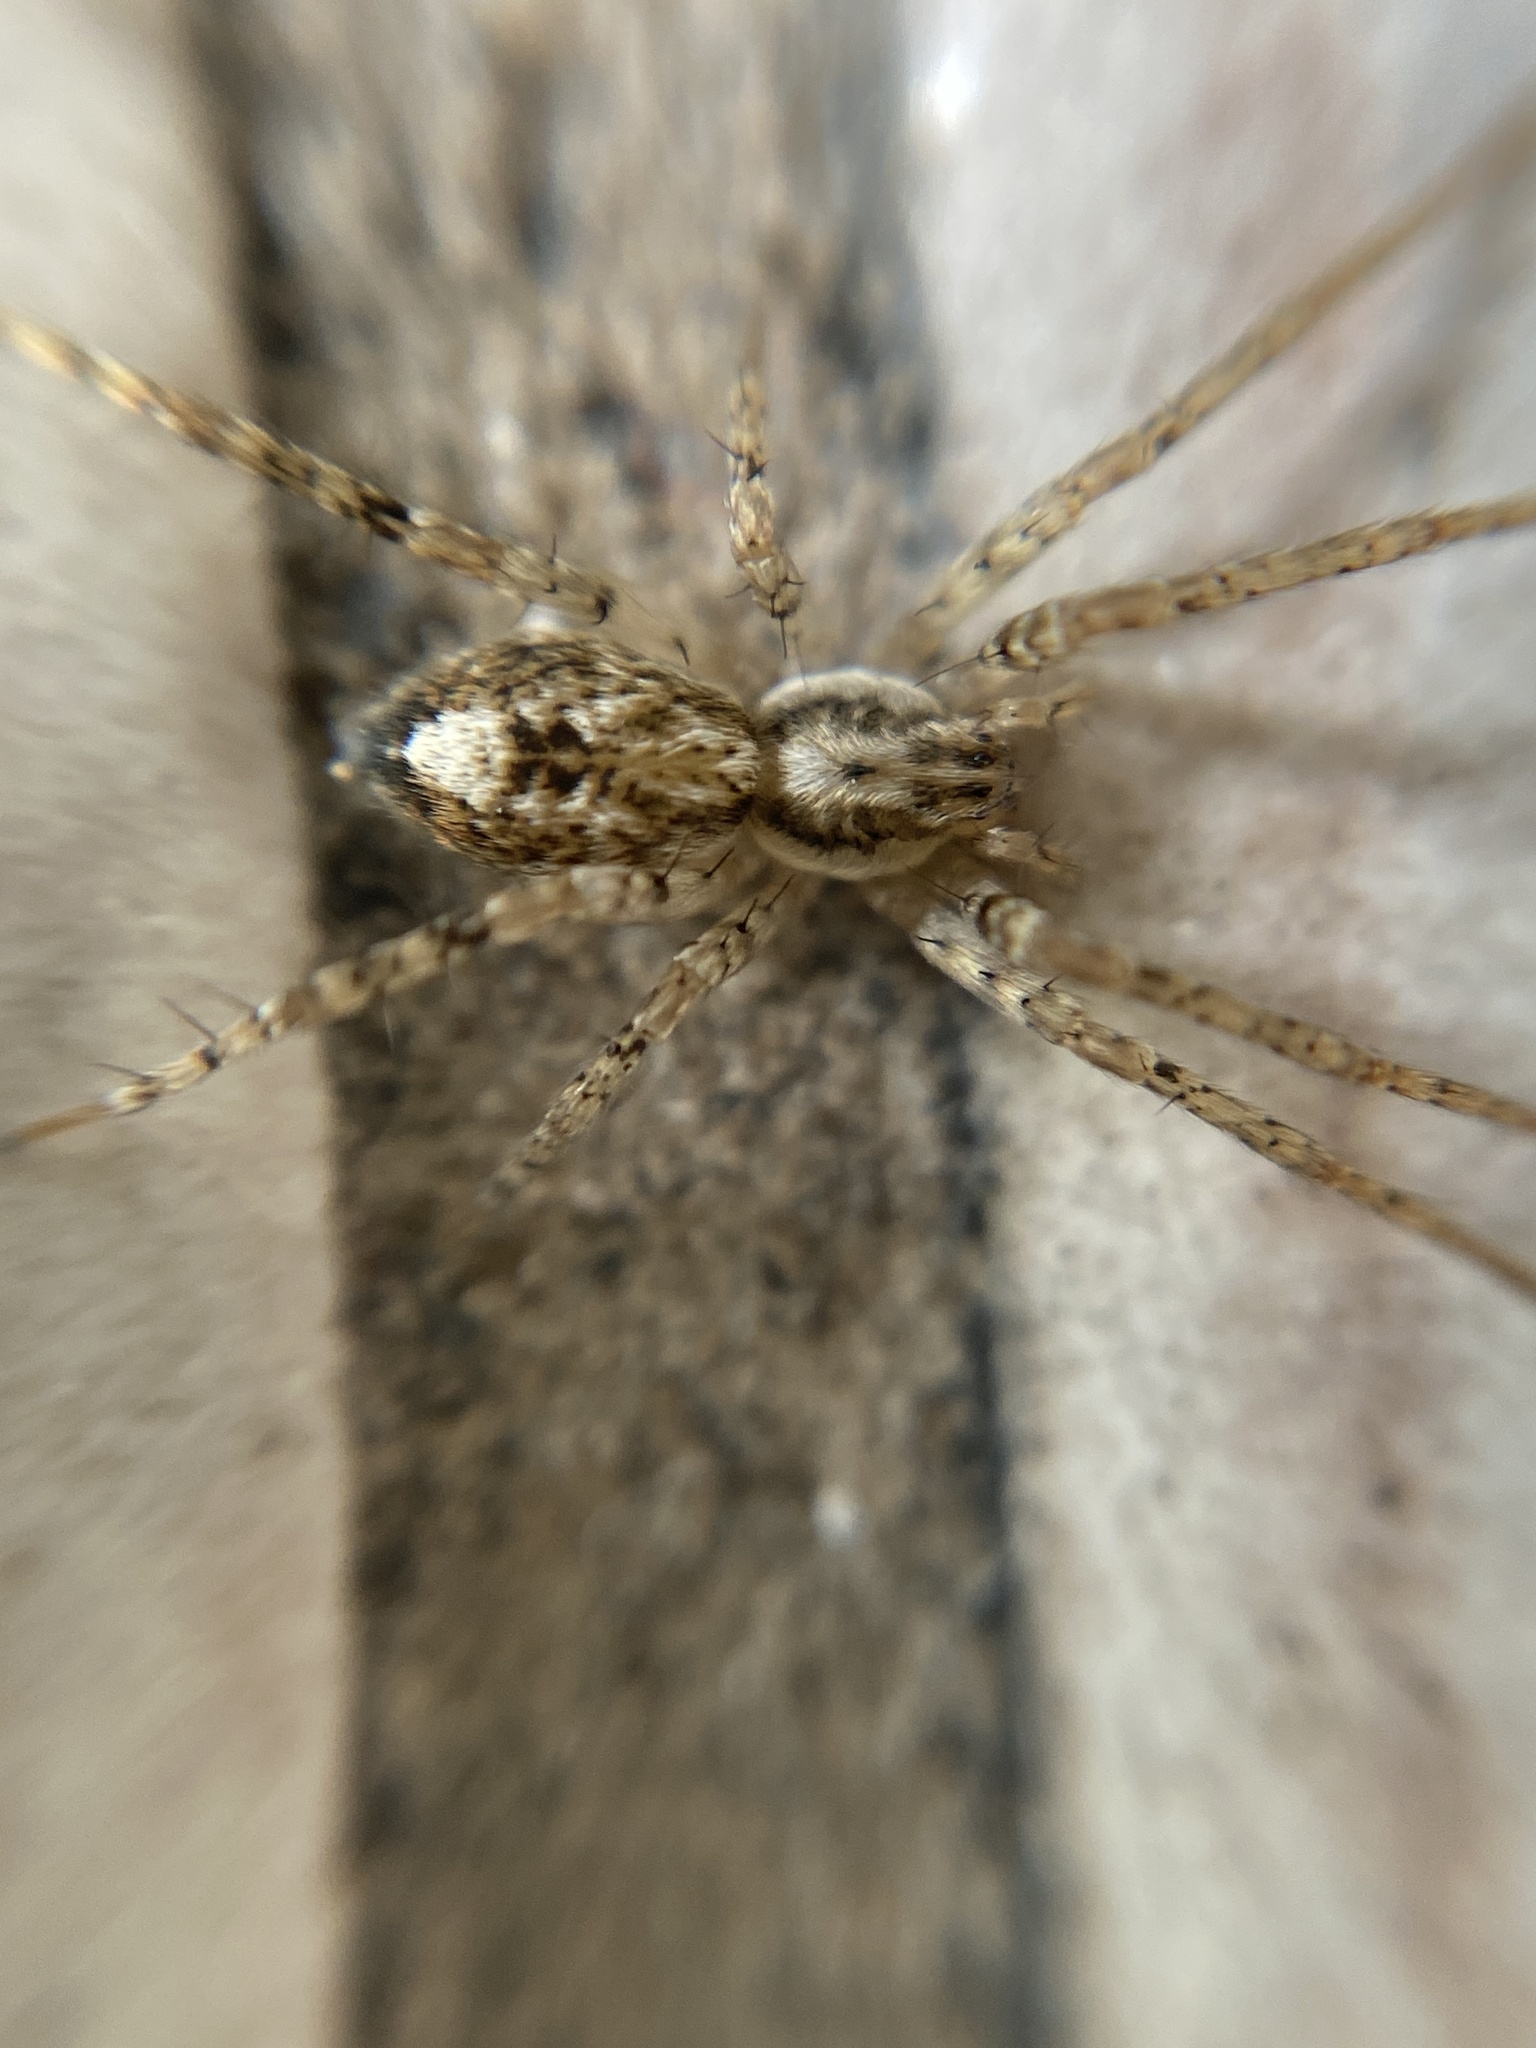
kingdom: Animalia
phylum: Arthropoda
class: Arachnida
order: Araneae
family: Anyphaenidae
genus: Anyphaena
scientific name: Anyphaena accentuata
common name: Buzzing spider
